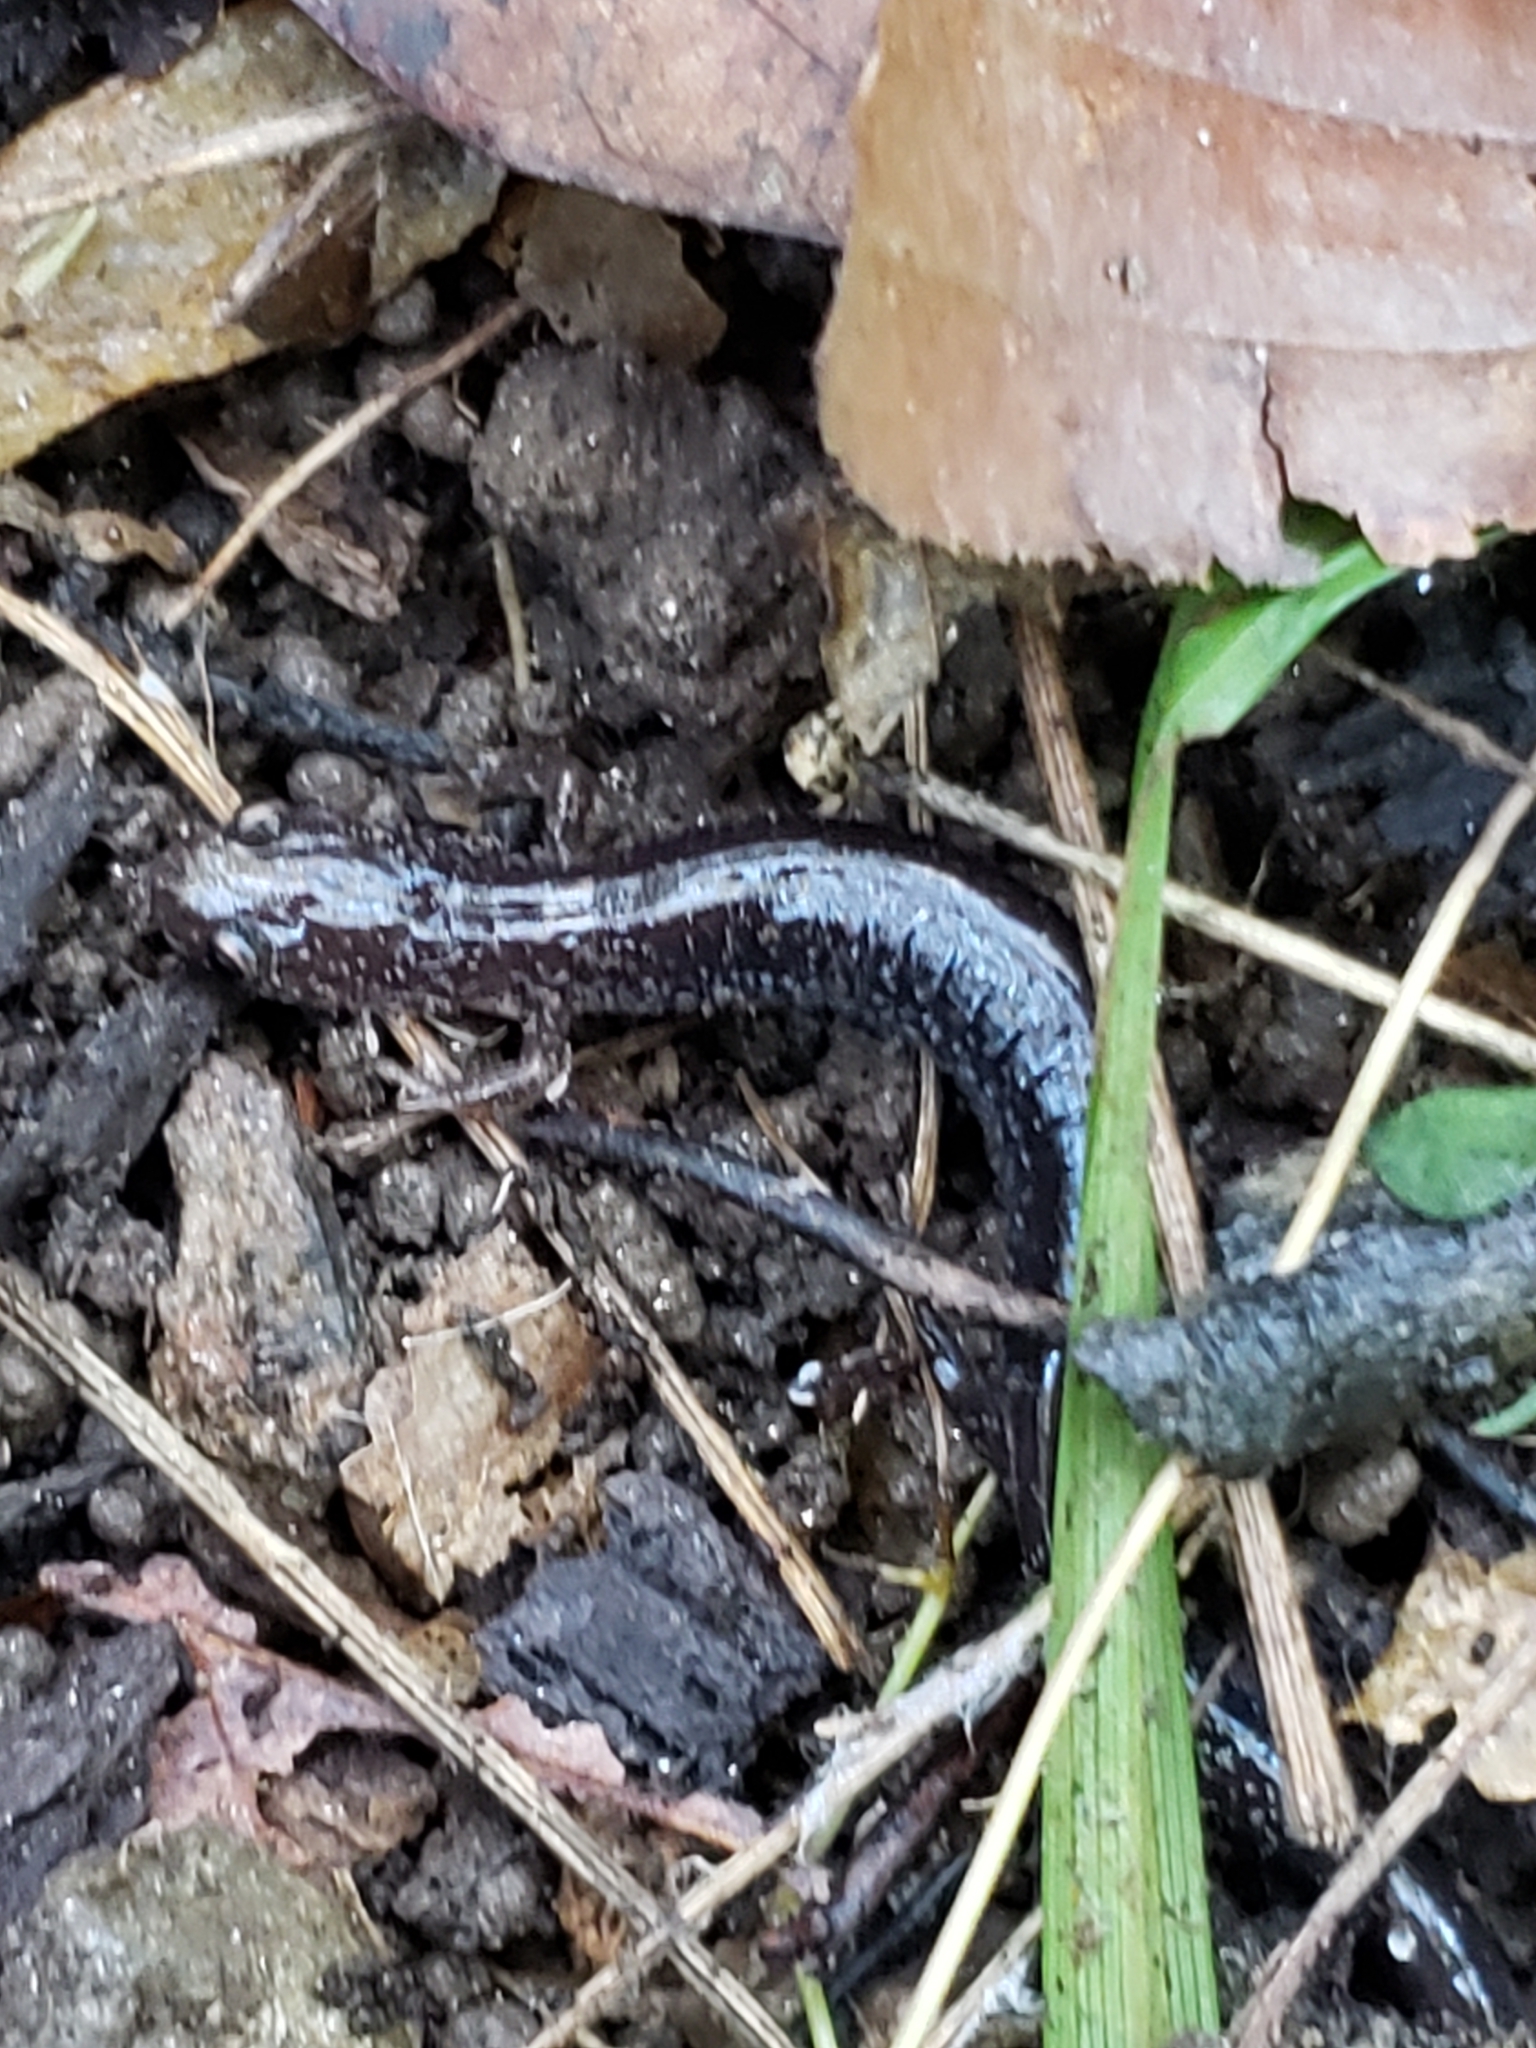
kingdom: Animalia
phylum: Chordata
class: Amphibia
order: Caudata
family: Plethodontidae
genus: Plethodon
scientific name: Plethodon cinereus
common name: Redback salamander
